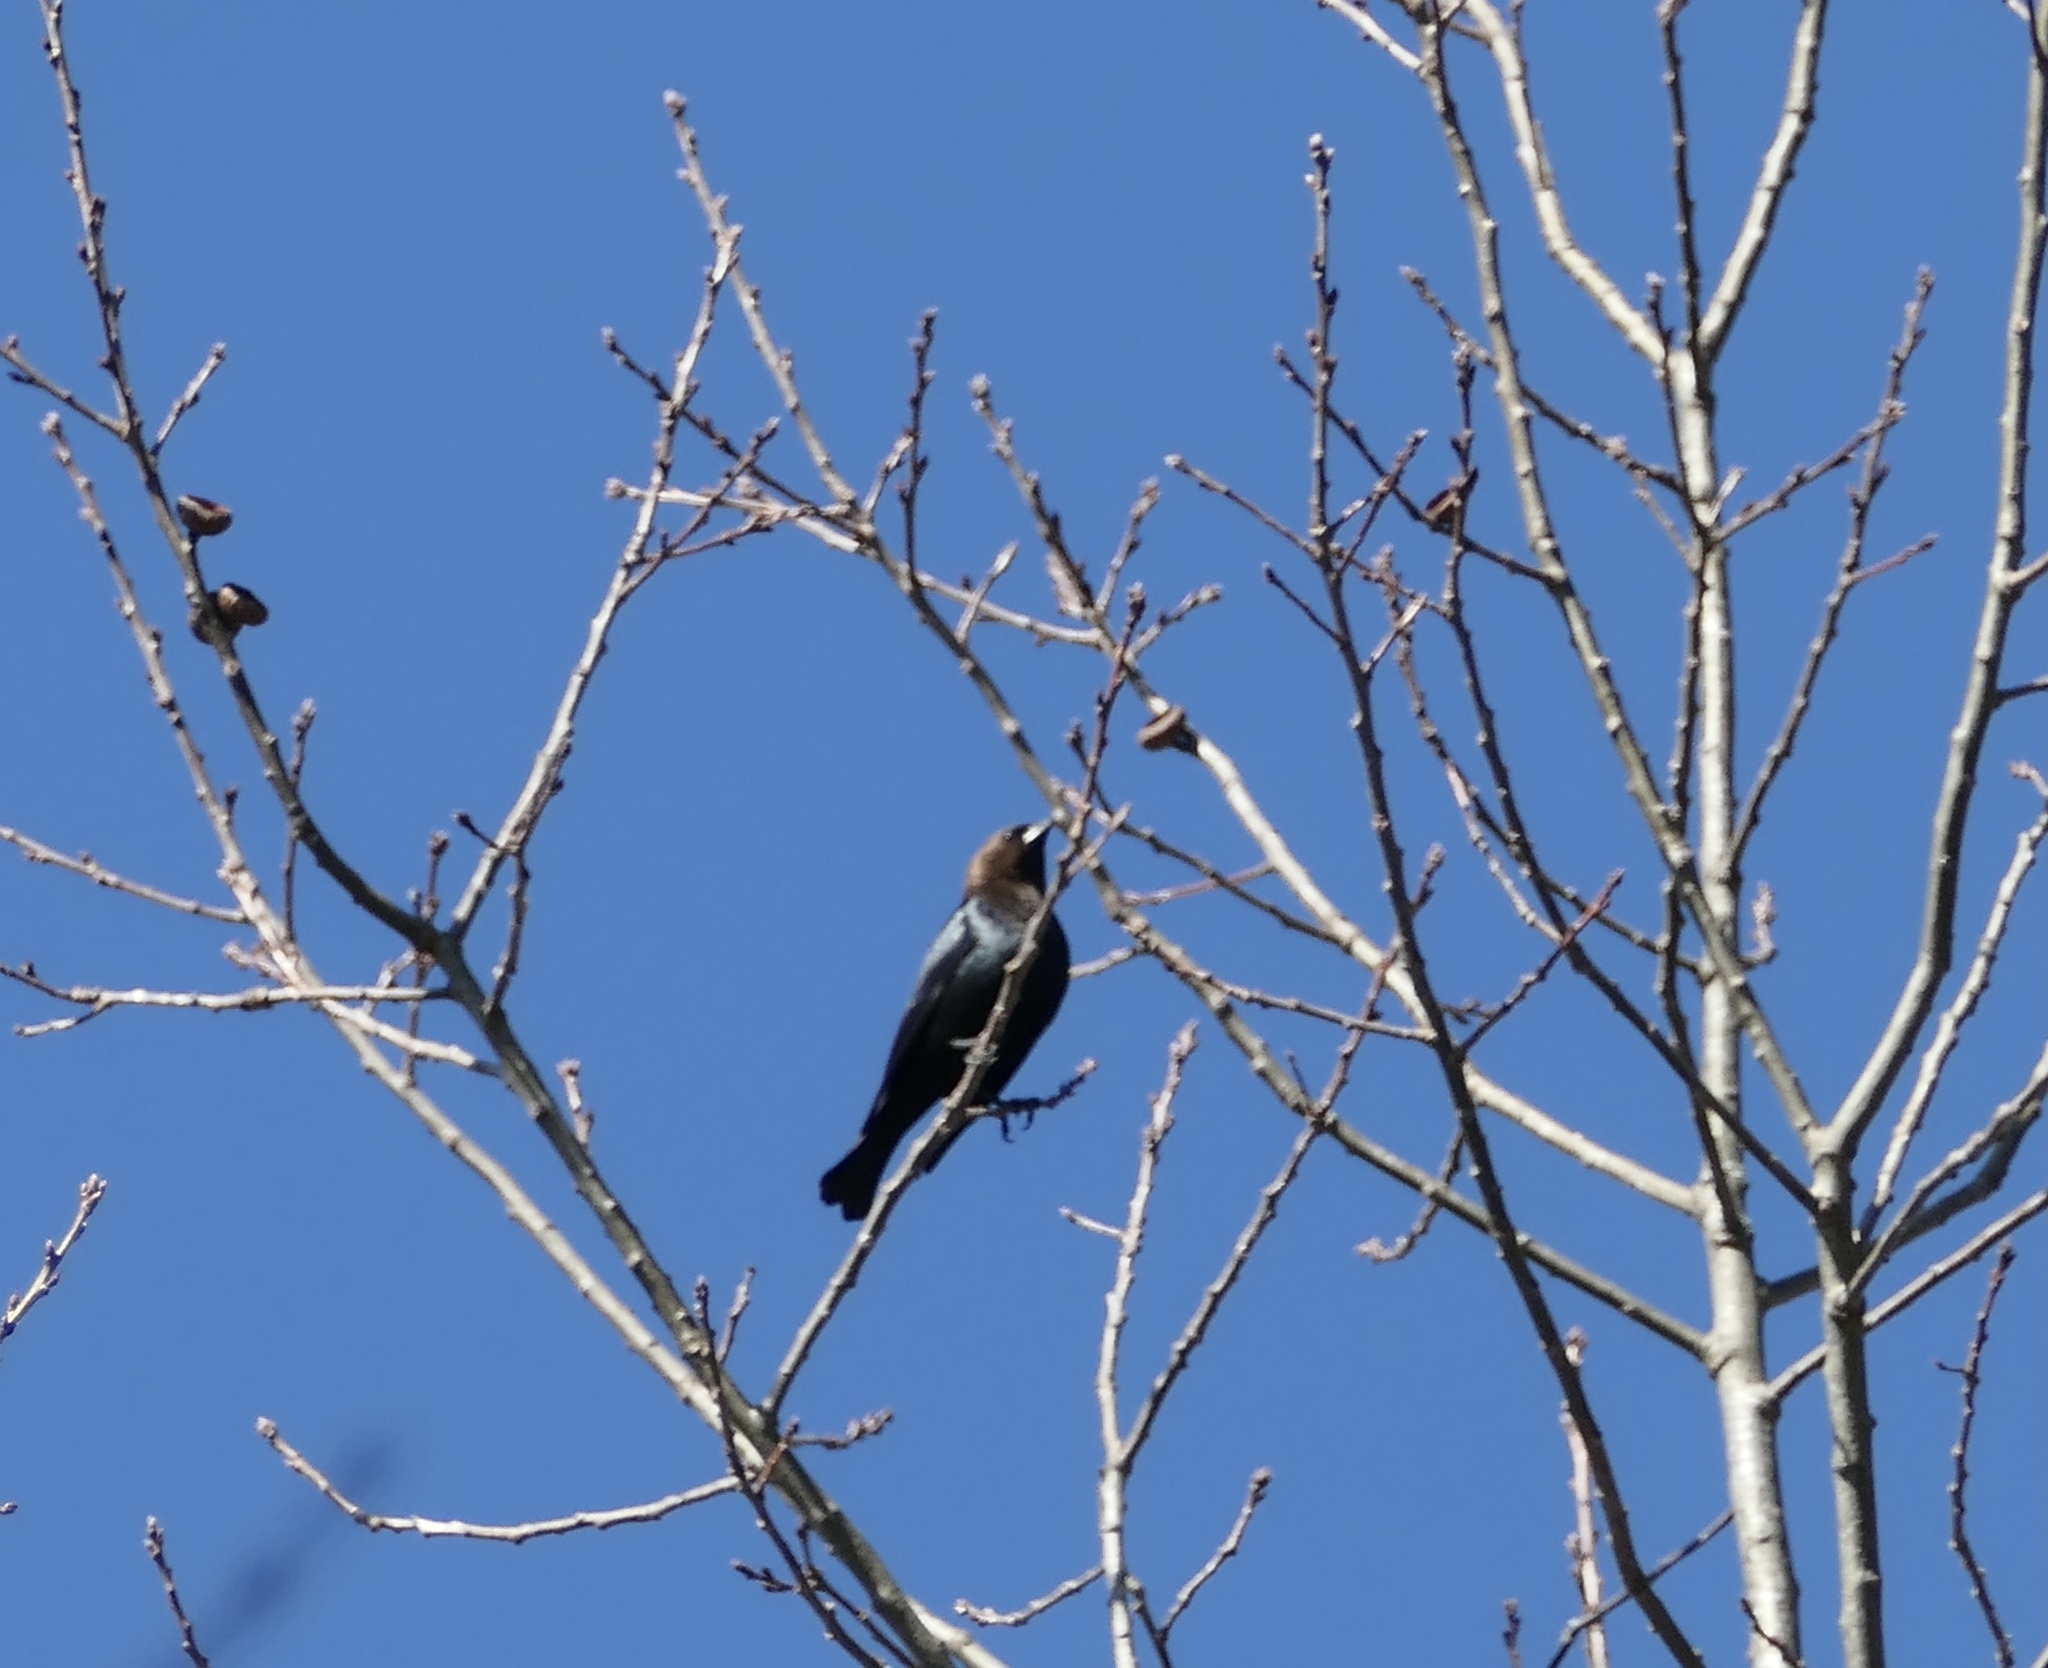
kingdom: Animalia
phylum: Chordata
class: Aves
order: Passeriformes
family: Icteridae
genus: Molothrus
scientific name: Molothrus ater
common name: Brown-headed cowbird
